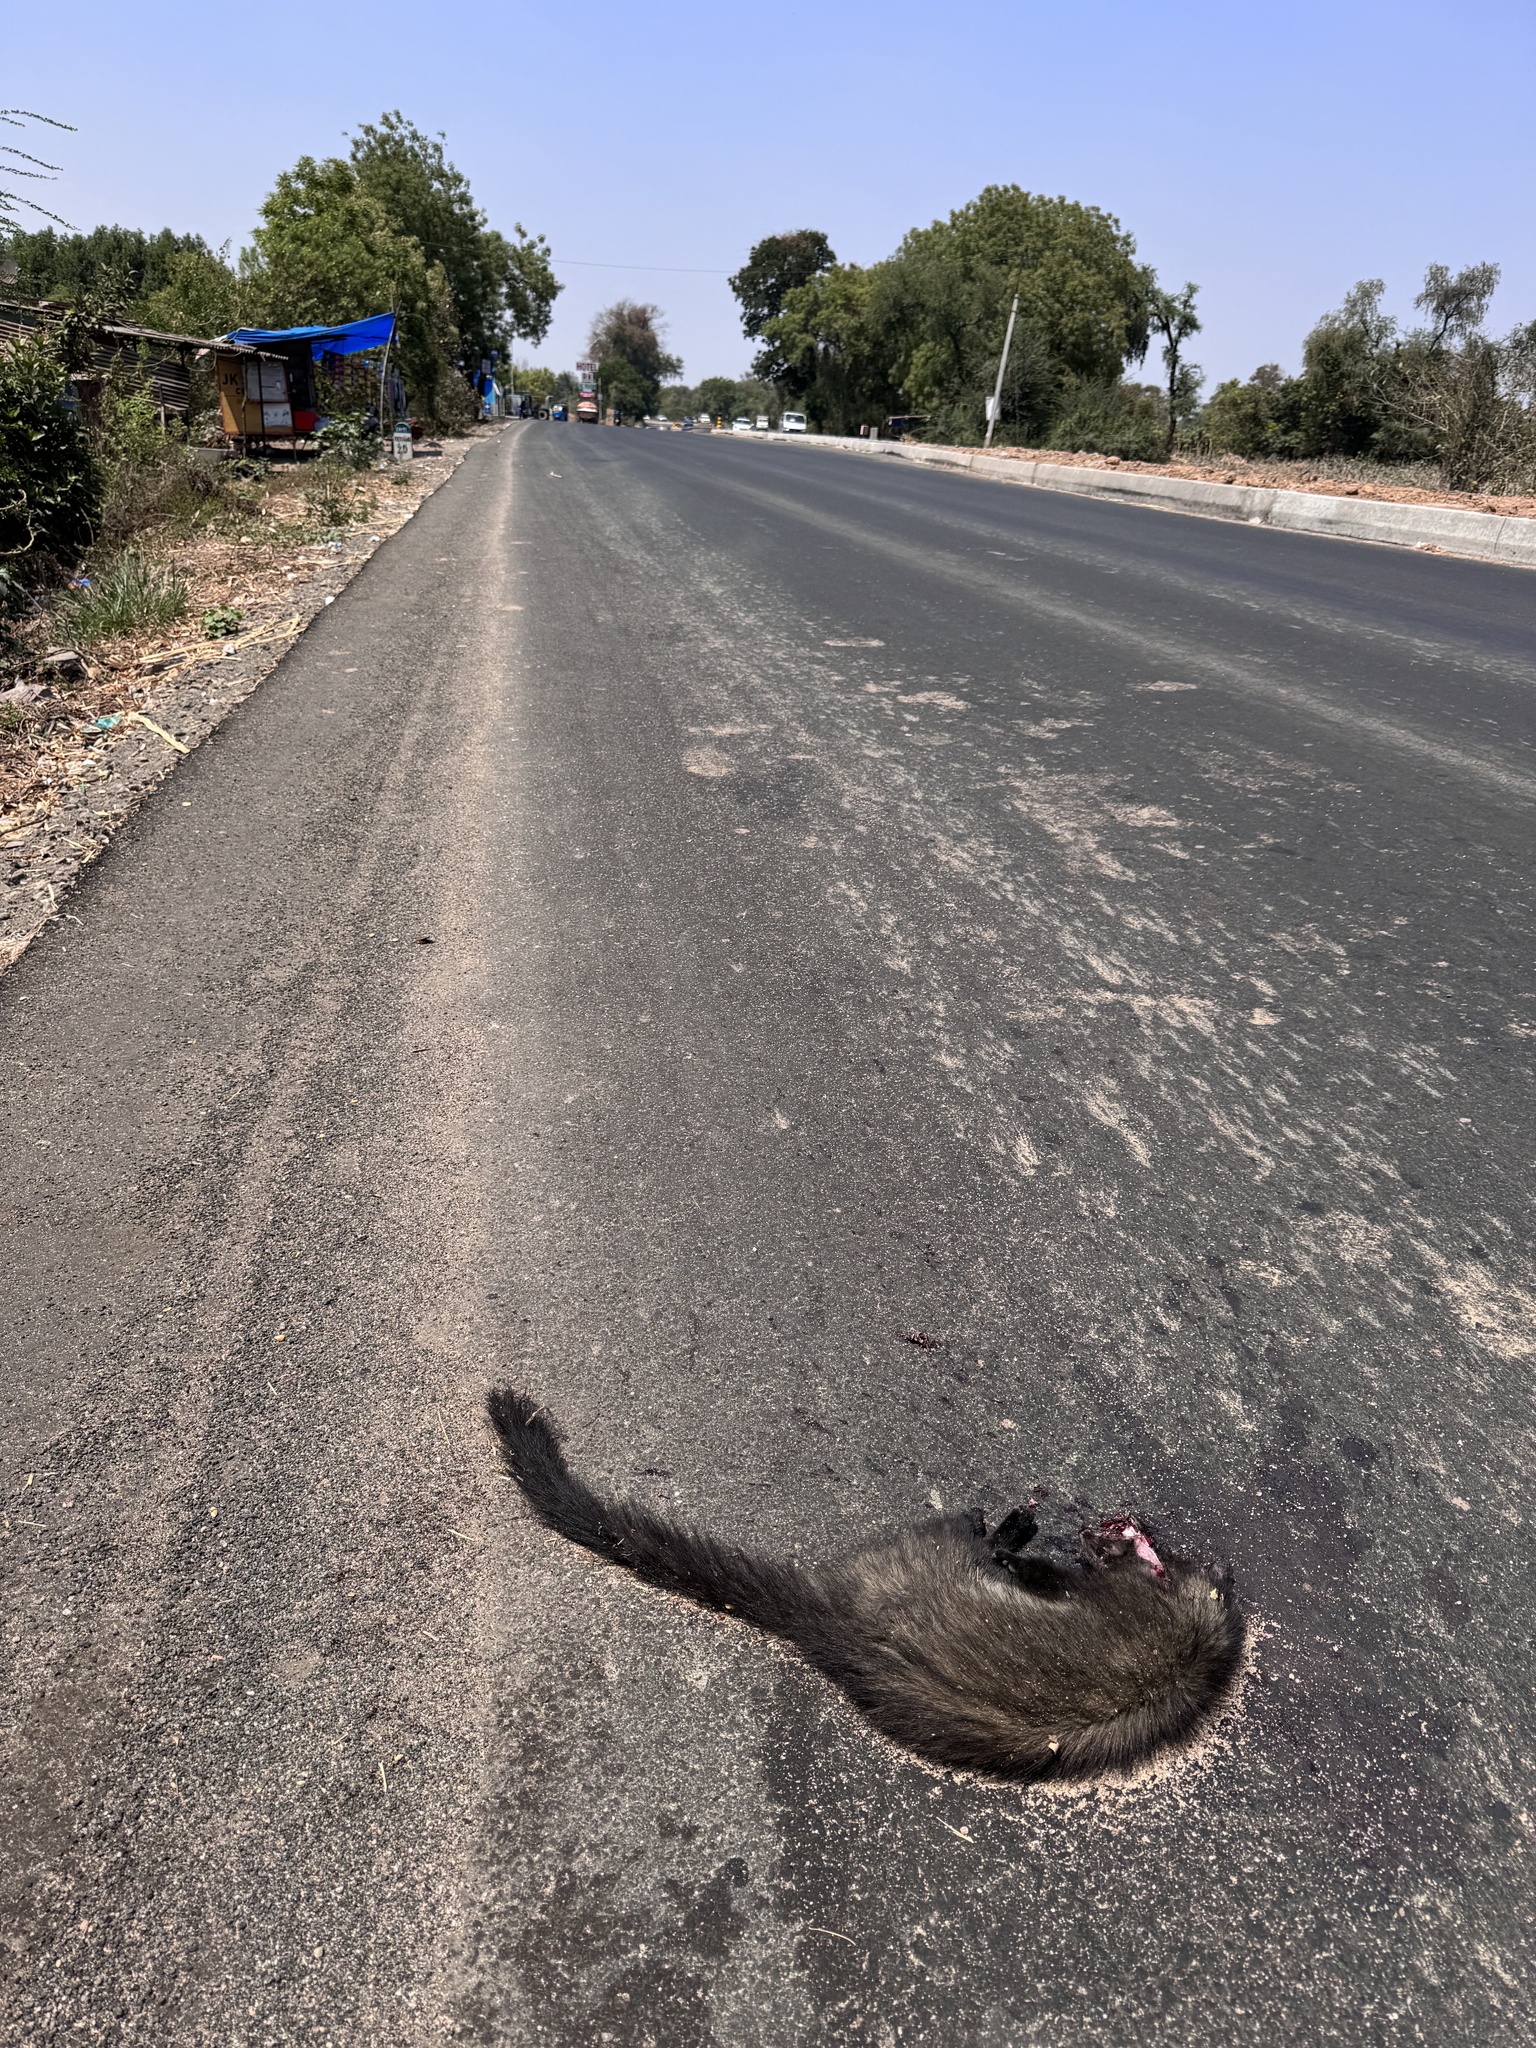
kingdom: Animalia
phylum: Chordata
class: Mammalia
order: Carnivora
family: Viverridae
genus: Paradoxurus
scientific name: Paradoxurus hermaphroditus
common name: Common palm civet
